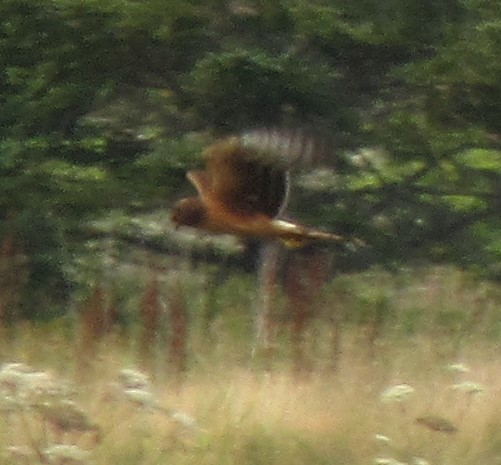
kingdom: Animalia
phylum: Chordata
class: Aves
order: Accipitriformes
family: Accipitridae
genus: Circus
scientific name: Circus cyaneus
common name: Hen harrier
